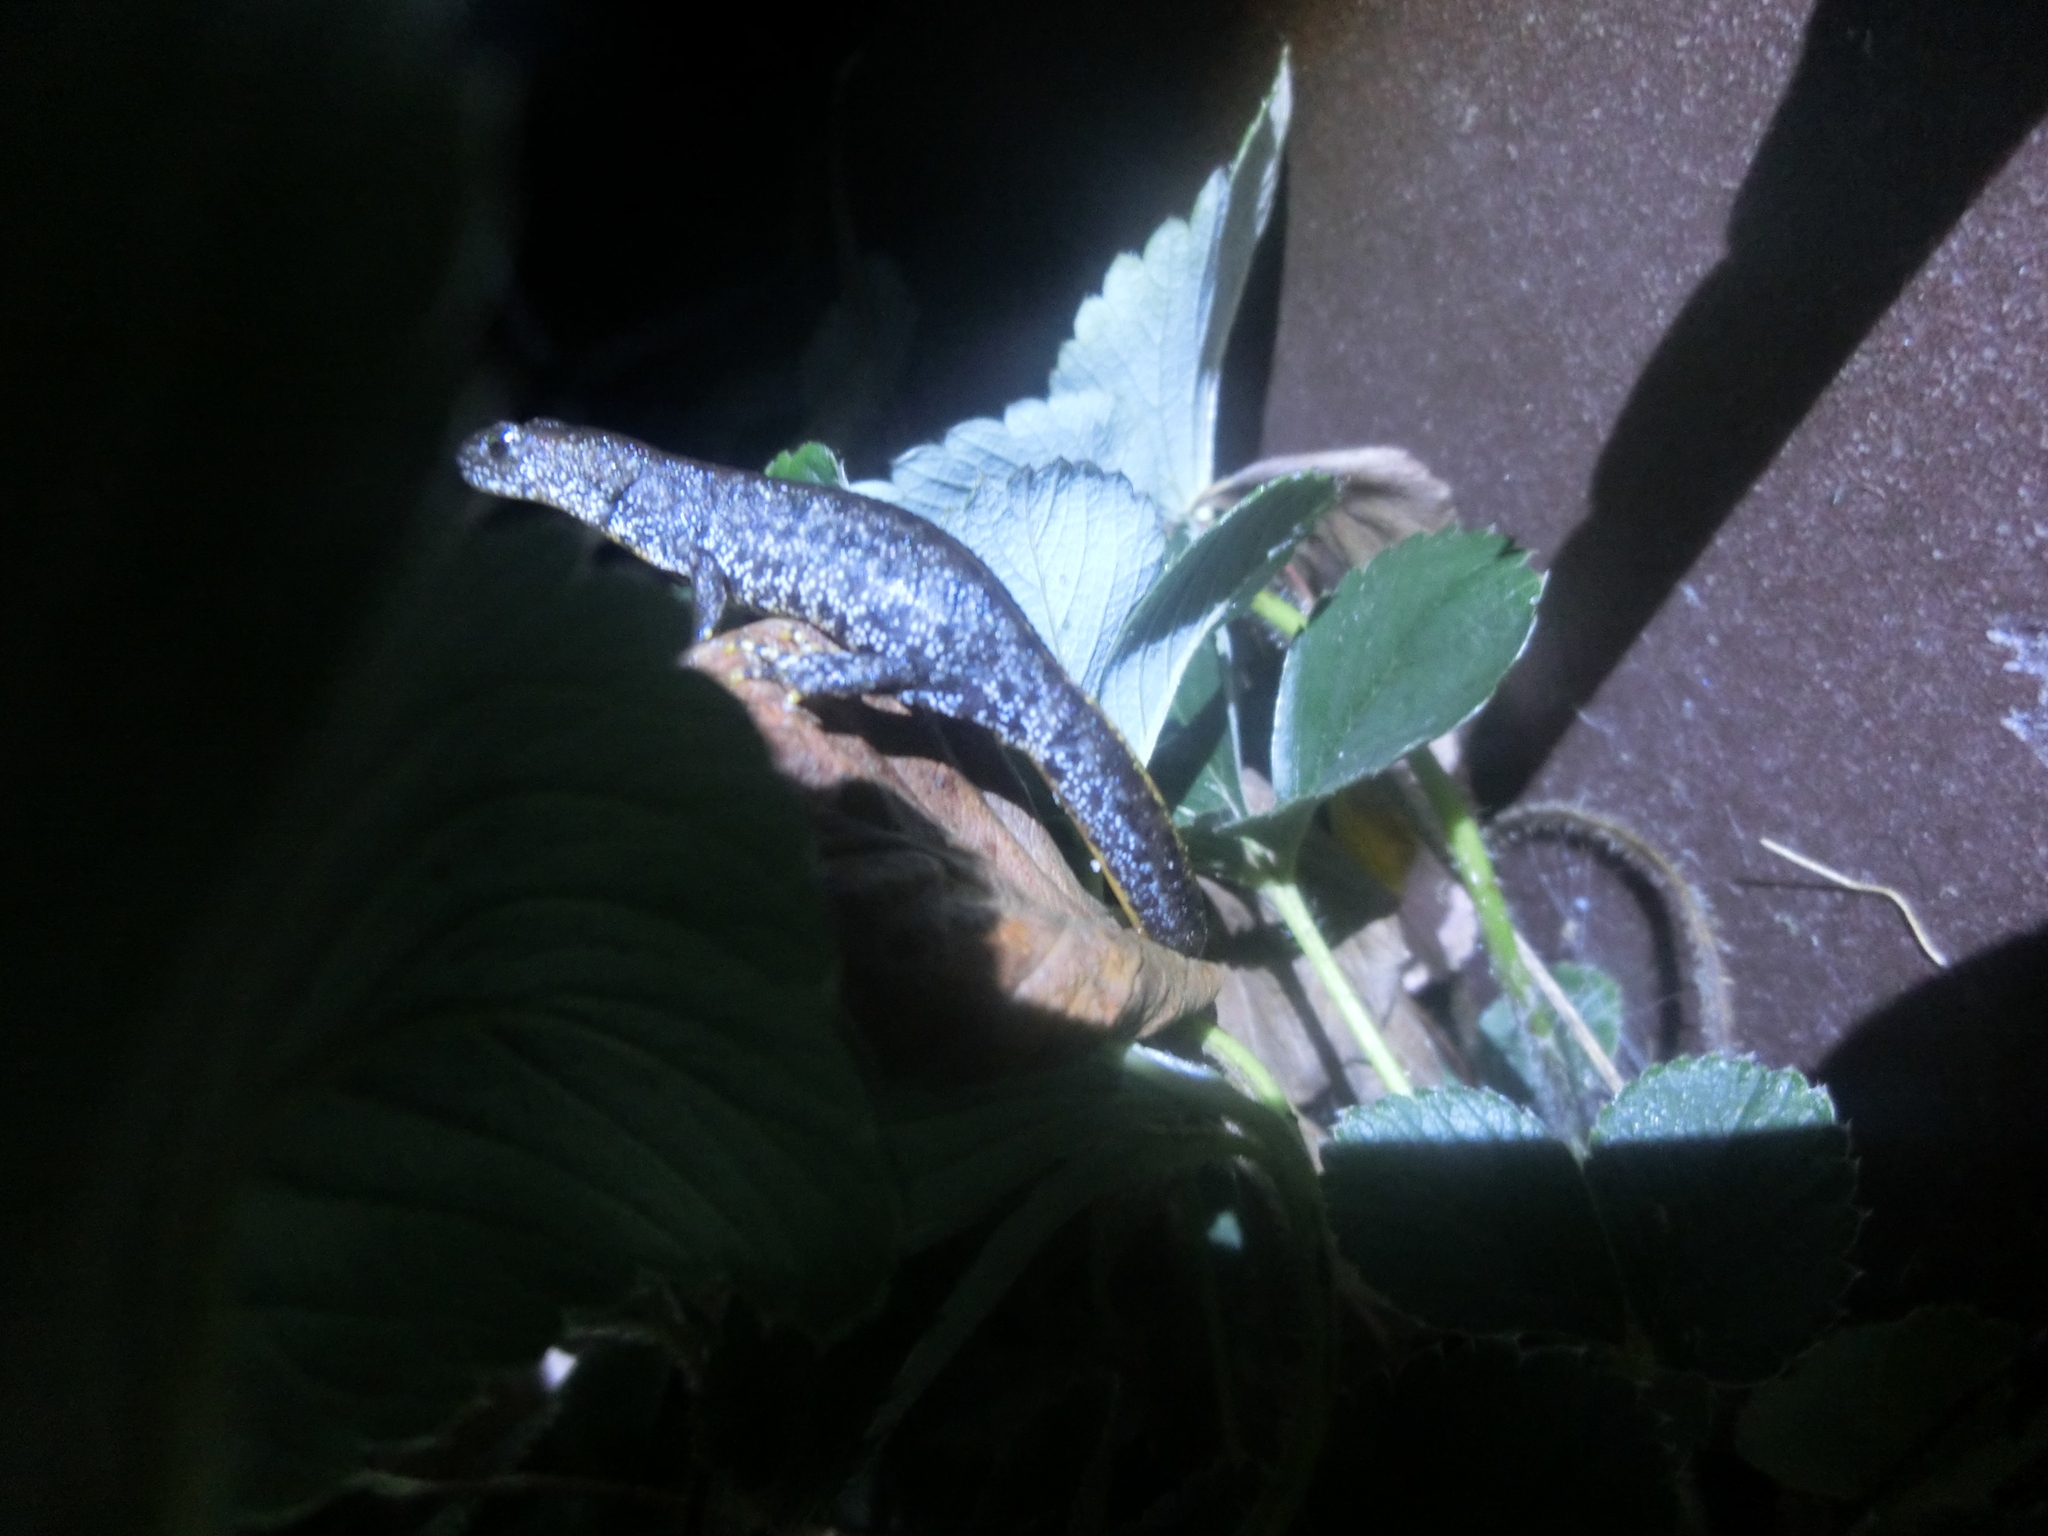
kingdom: Animalia
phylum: Chordata
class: Amphibia
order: Caudata
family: Salamandridae
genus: Triturus
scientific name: Triturus cristatus
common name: Crested newt
